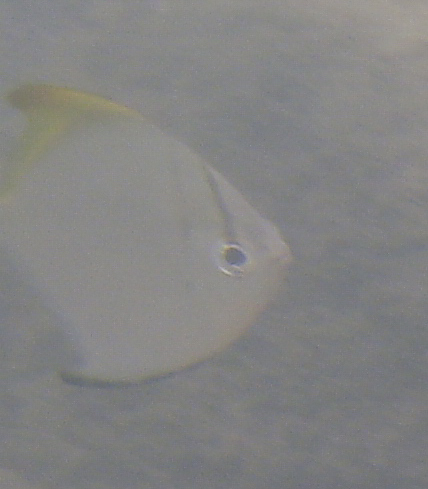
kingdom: Animalia
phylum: Chordata
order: Perciformes
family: Monodactylidae
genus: Monodactylus
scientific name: Monodactylus argenteus
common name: Silver moony
